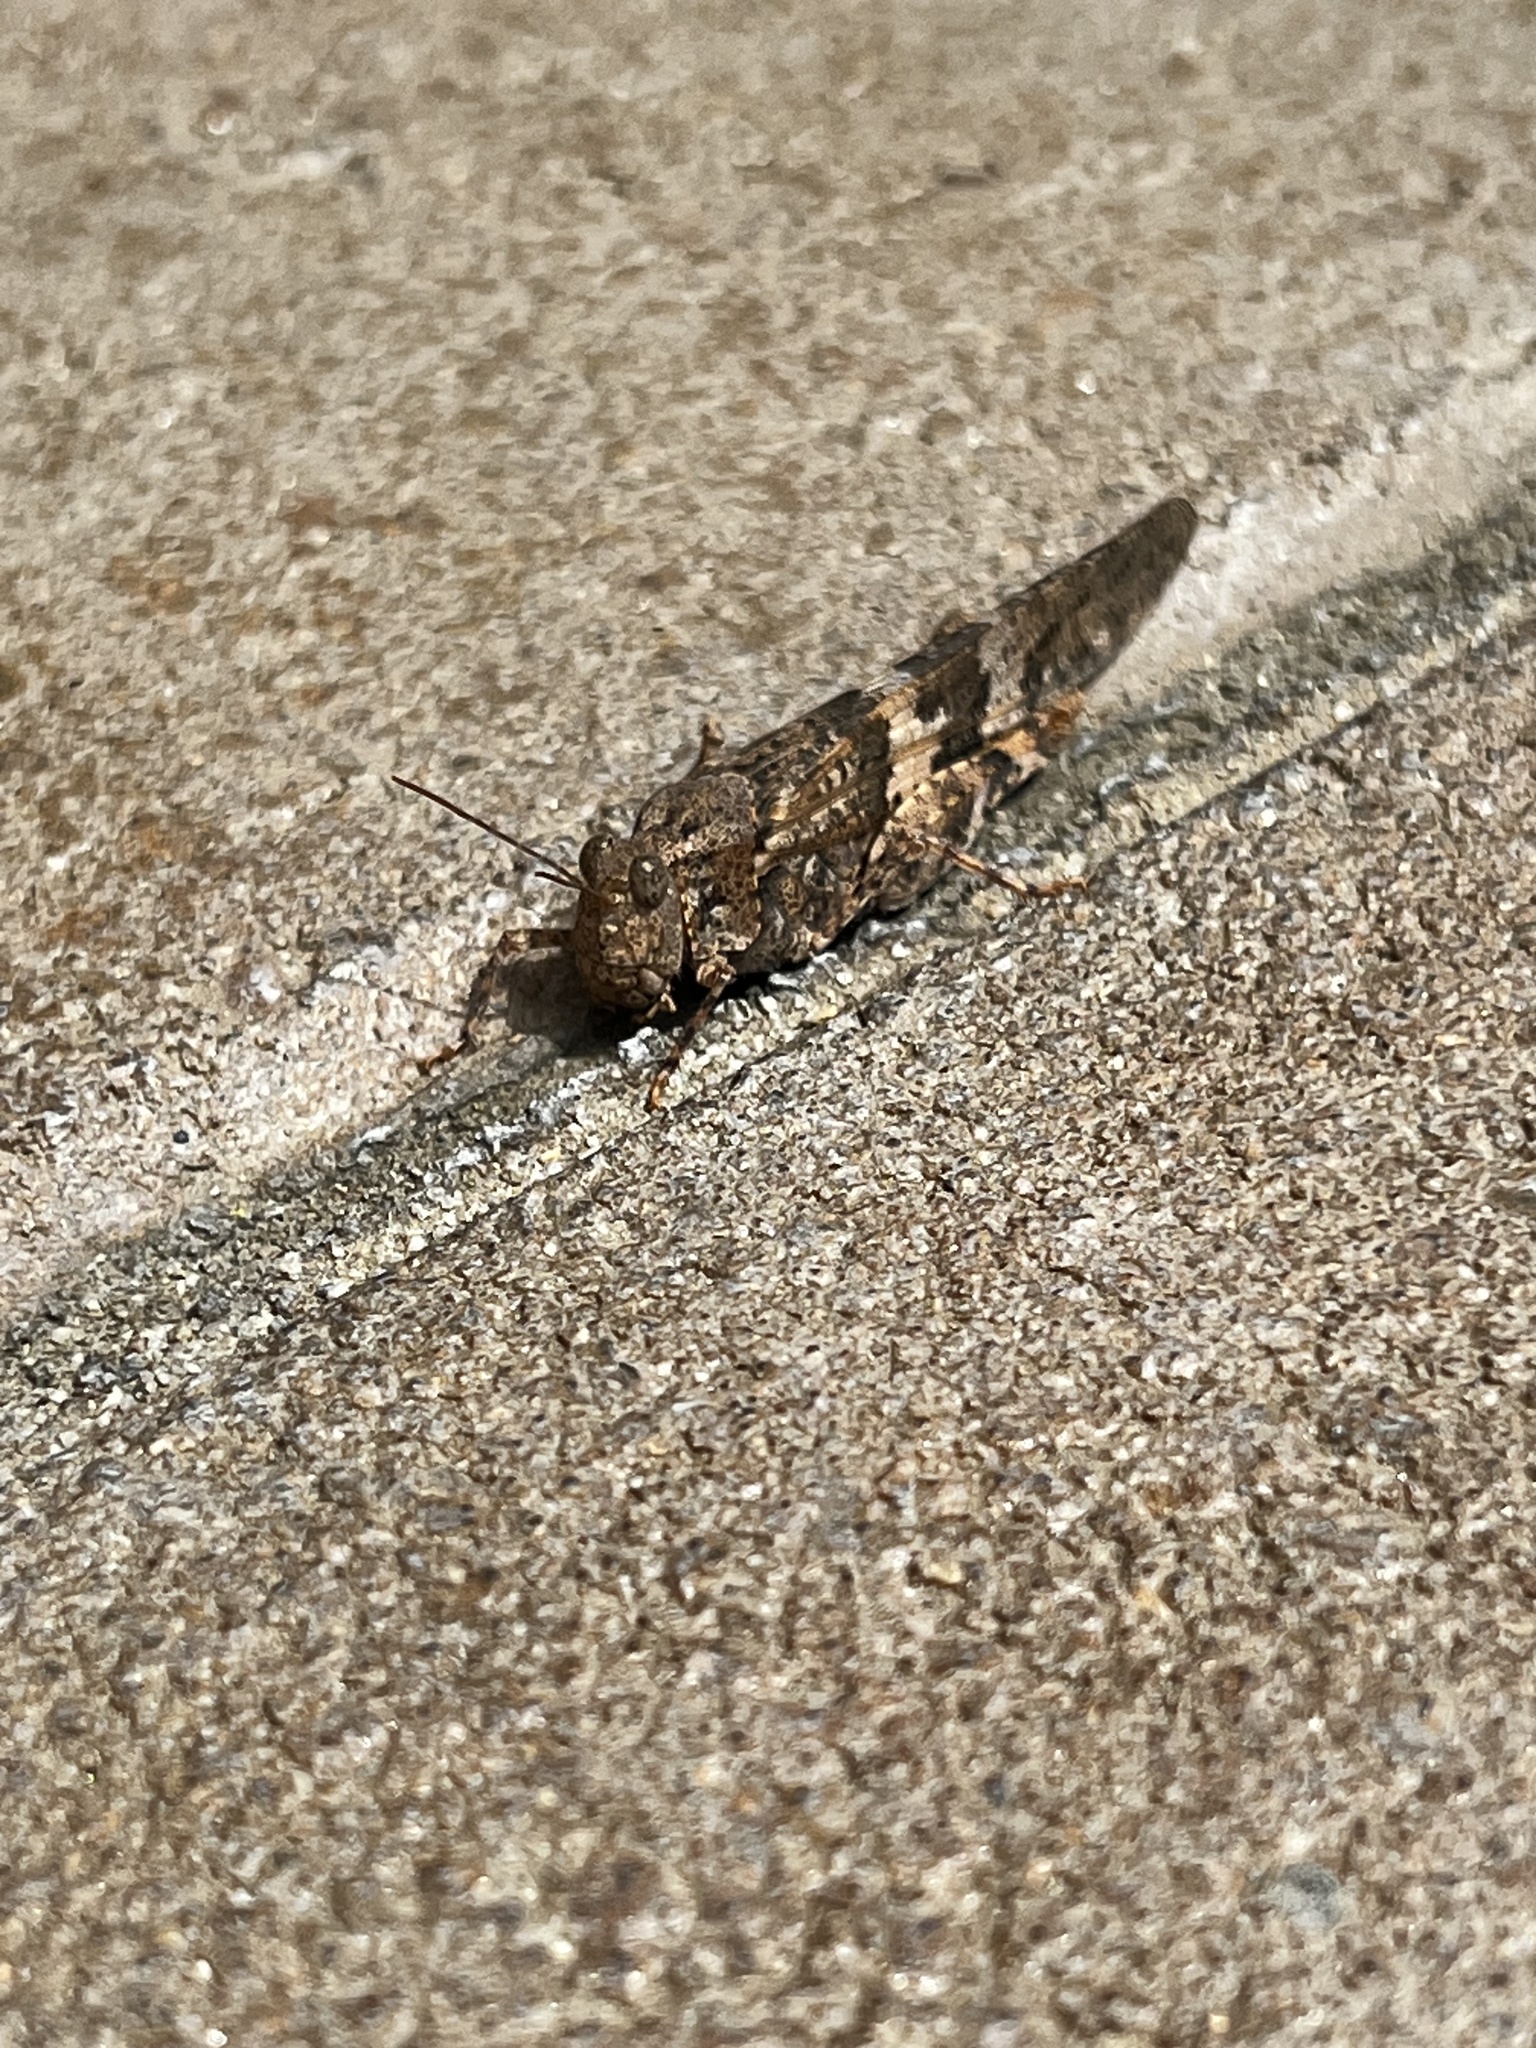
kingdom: Animalia
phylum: Arthropoda
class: Insecta
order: Orthoptera
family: Acrididae
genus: Trimerotropis
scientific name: Trimerotropis pallidipennis
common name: Pallid-winged grasshopper
